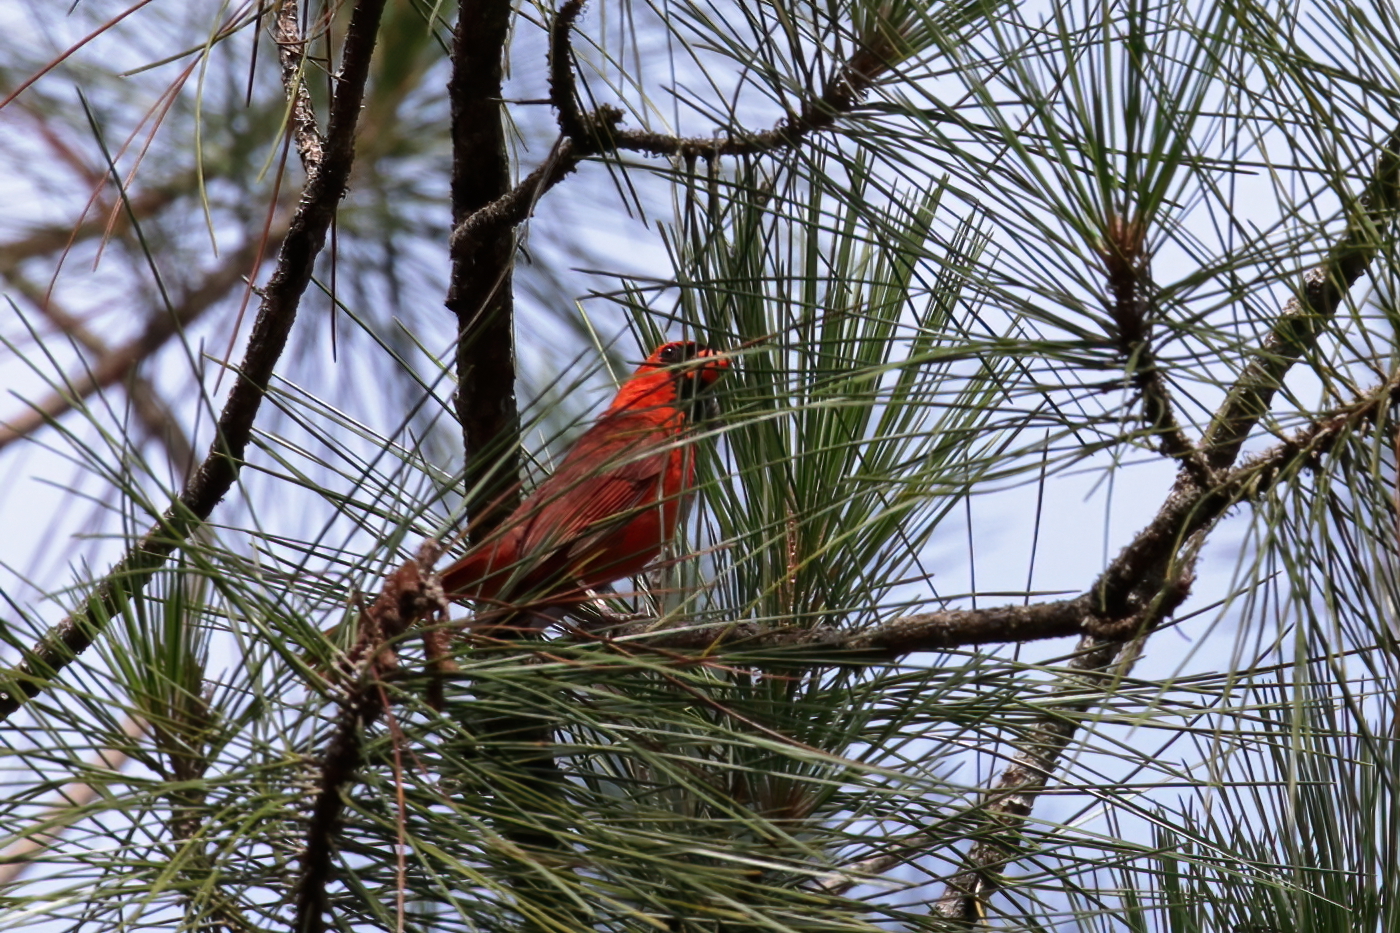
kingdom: Animalia
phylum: Chordata
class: Aves
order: Passeriformes
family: Cardinalidae
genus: Cardinalis
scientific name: Cardinalis cardinalis
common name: Northern cardinal
